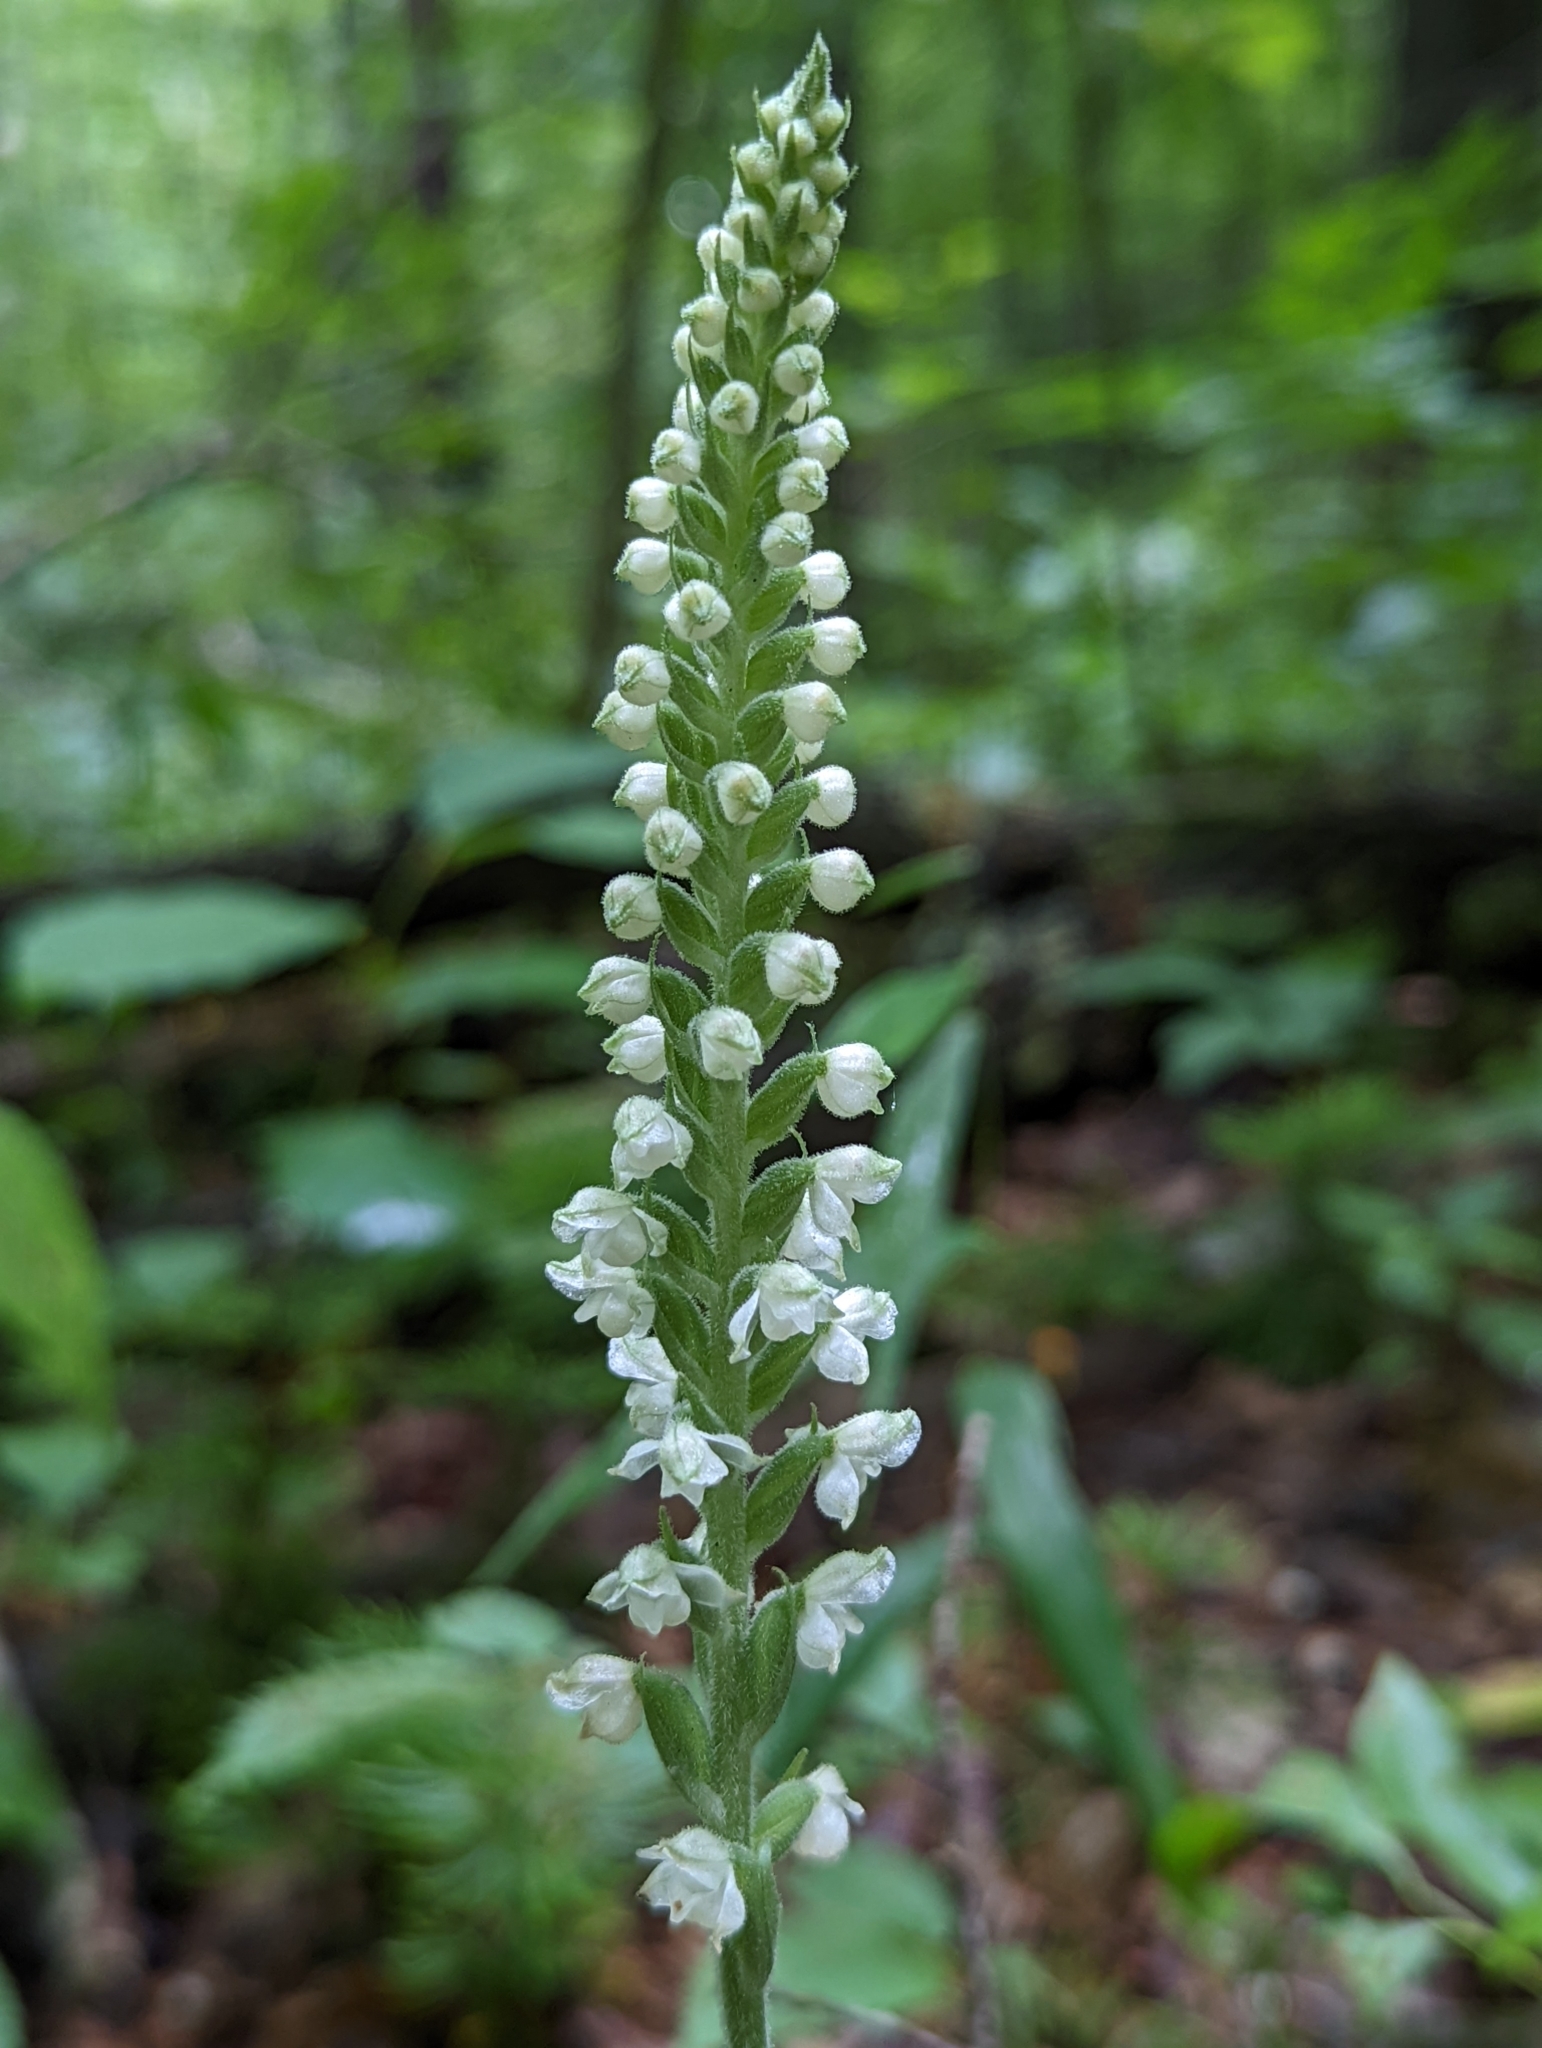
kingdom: Plantae
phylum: Tracheophyta
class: Liliopsida
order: Asparagales
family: Orchidaceae
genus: Goodyera
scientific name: Goodyera pubescens
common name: Downy rattlesnake-plantain
